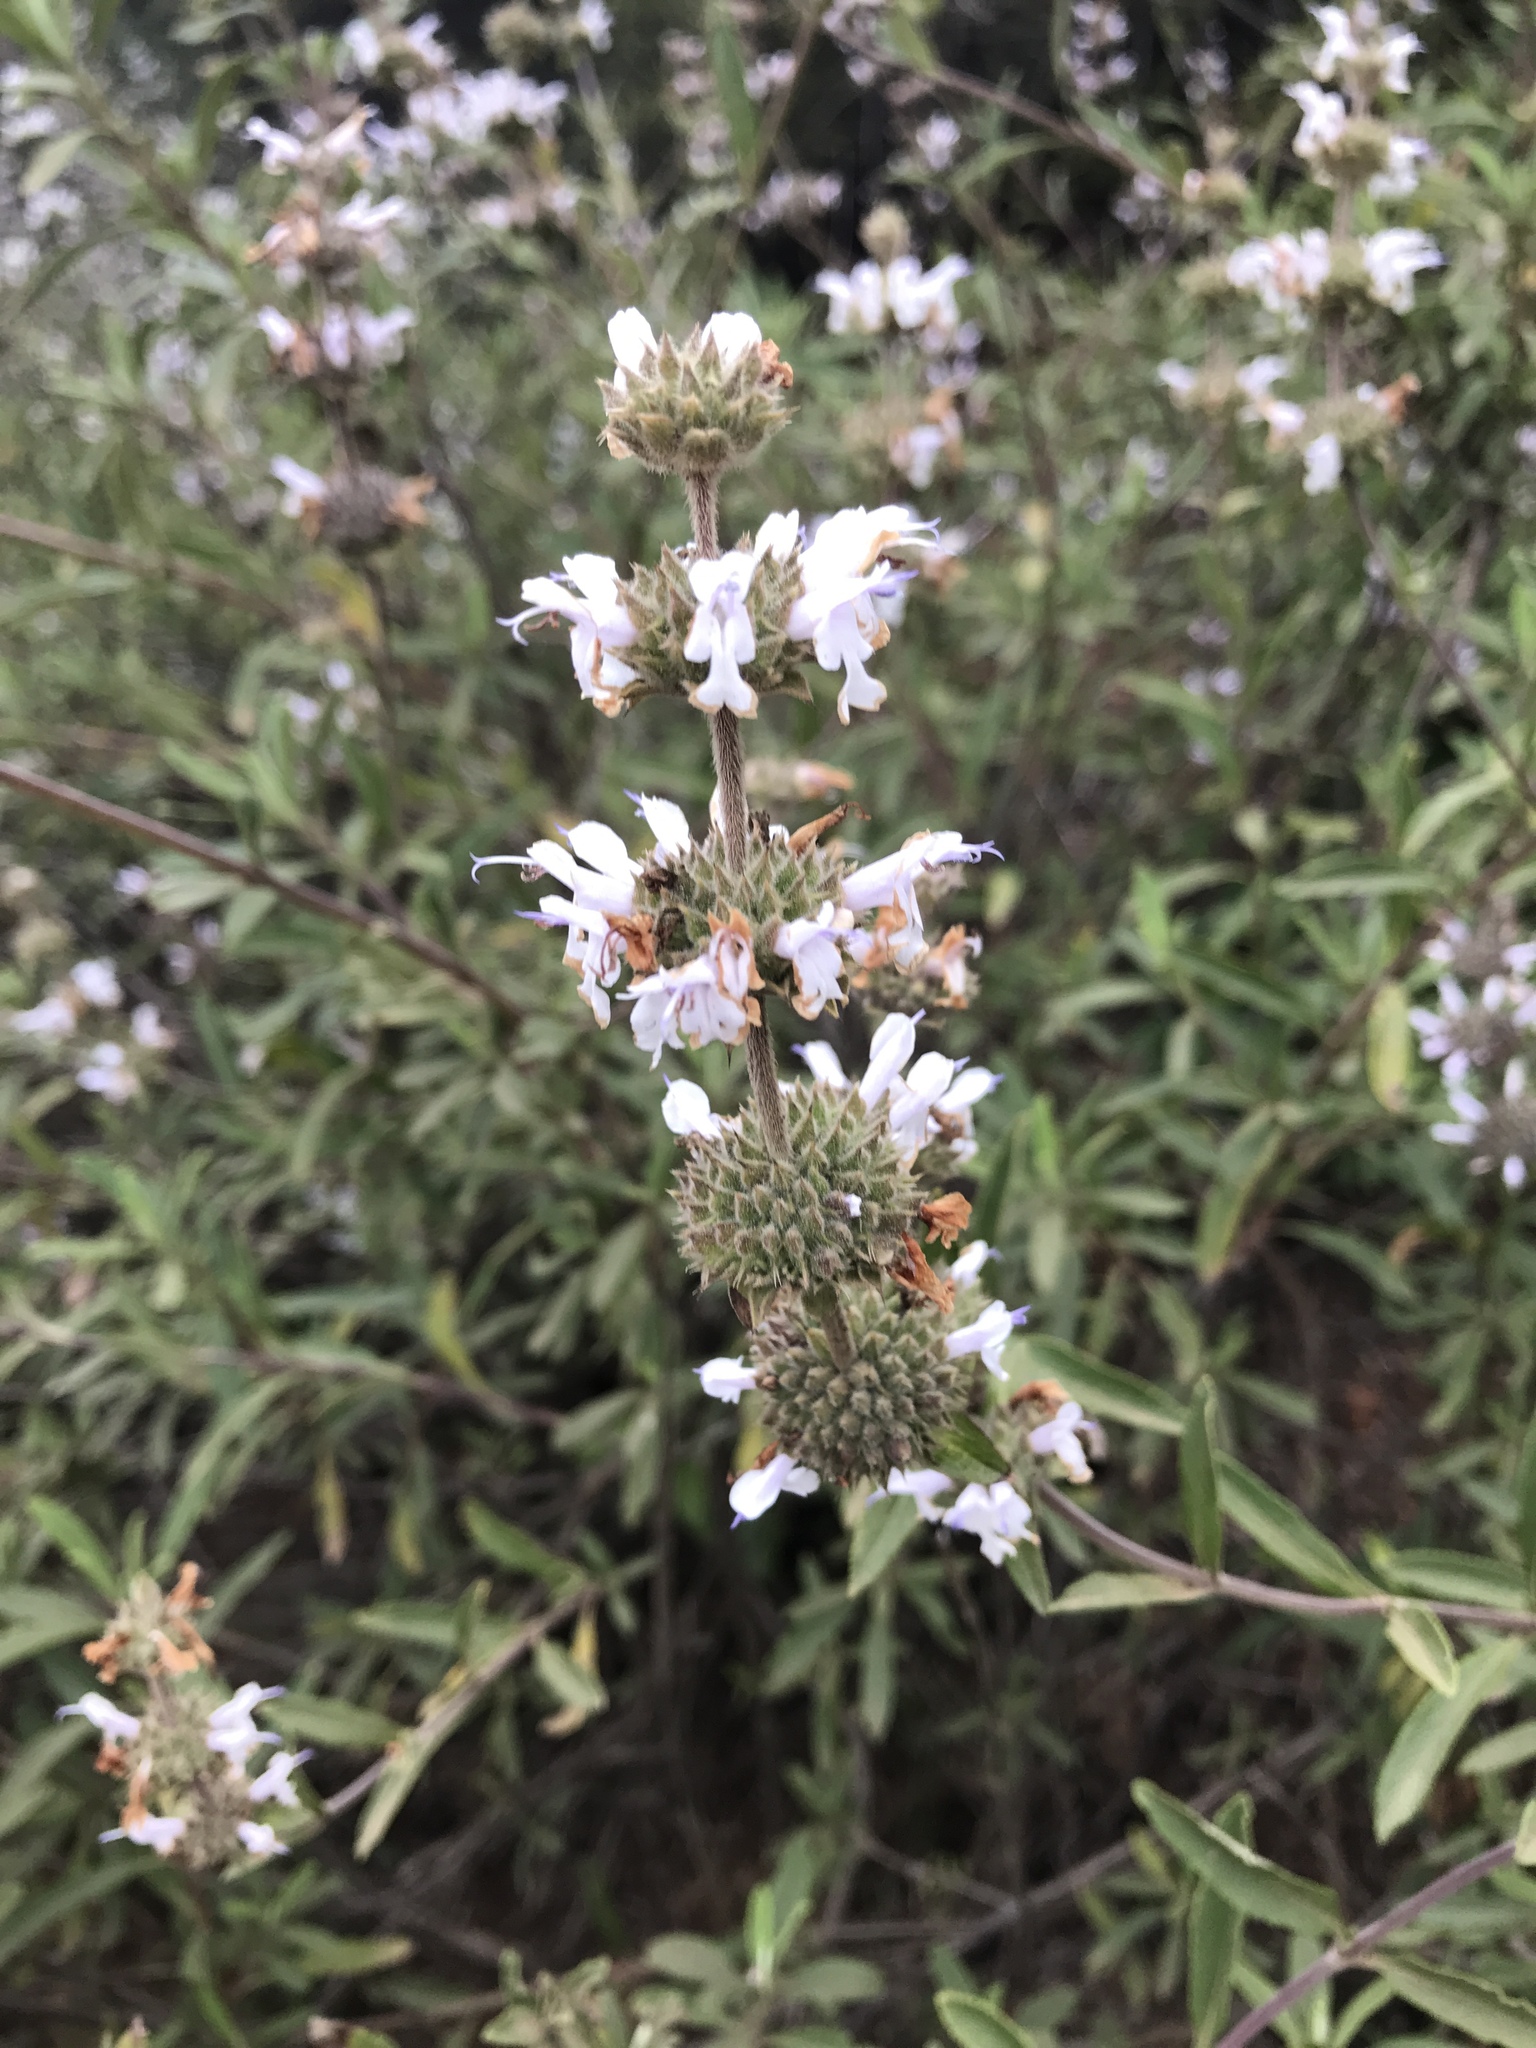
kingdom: Plantae
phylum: Tracheophyta
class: Magnoliopsida
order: Lamiales
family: Lamiaceae
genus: Salvia
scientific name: Salvia mellifera
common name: Black sage
